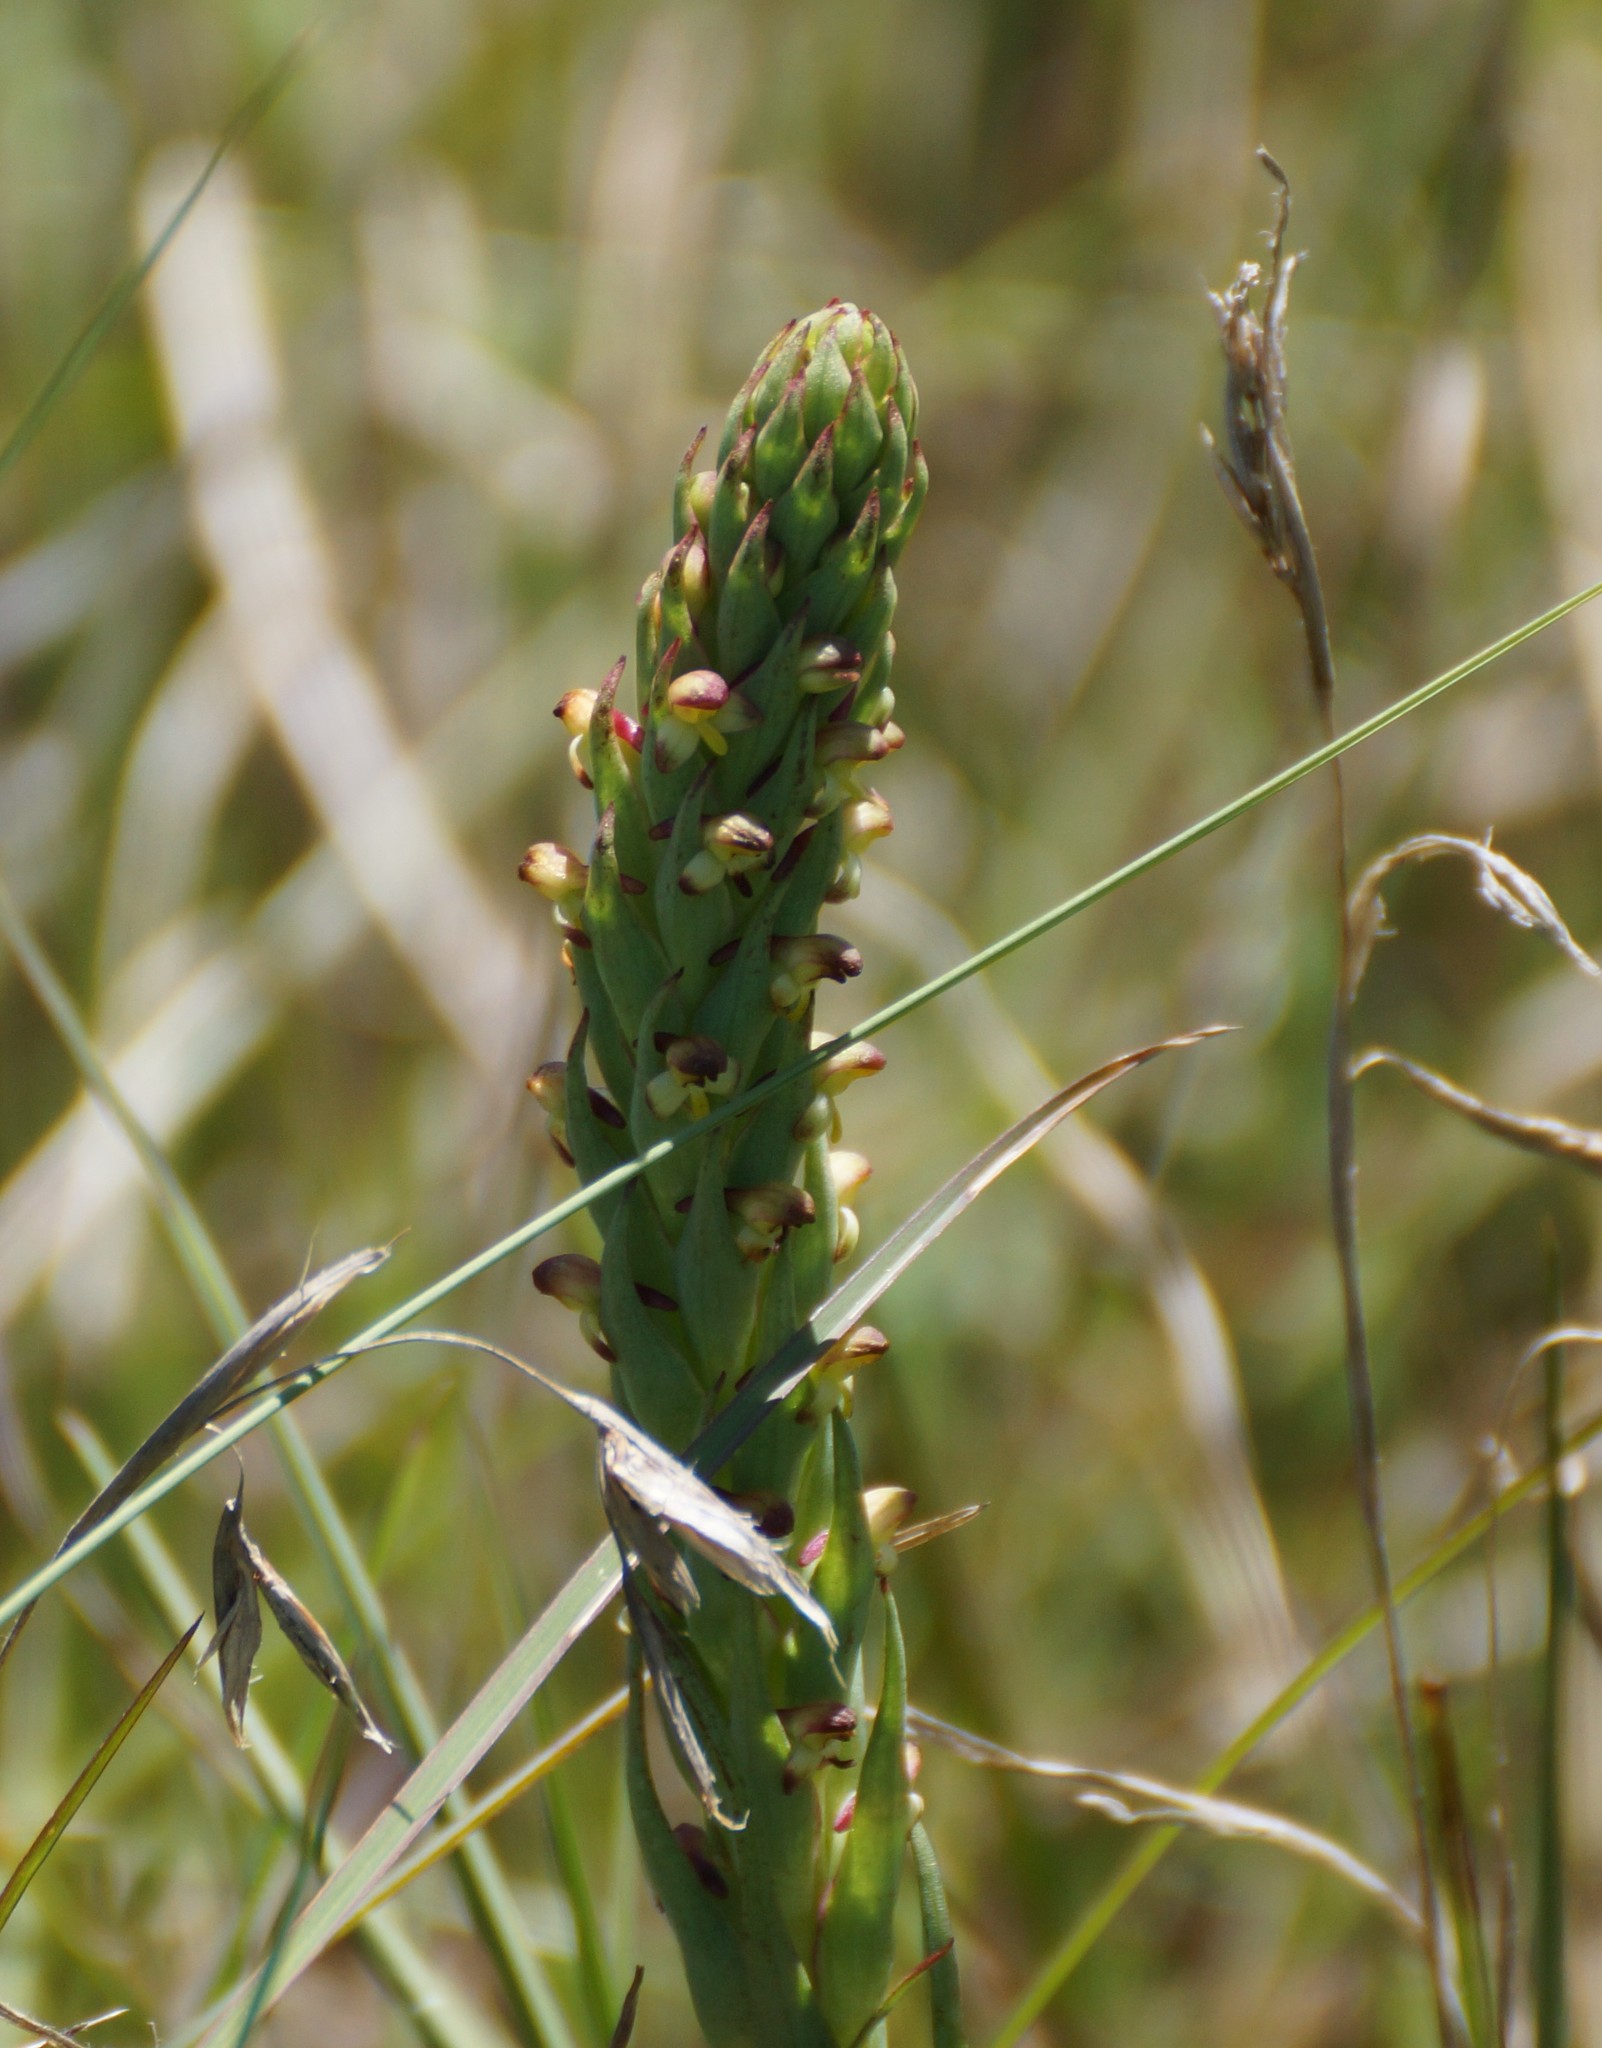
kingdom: Plantae
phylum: Tracheophyta
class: Liliopsida
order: Asparagales
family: Orchidaceae
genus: Disa
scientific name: Disa bracteata
